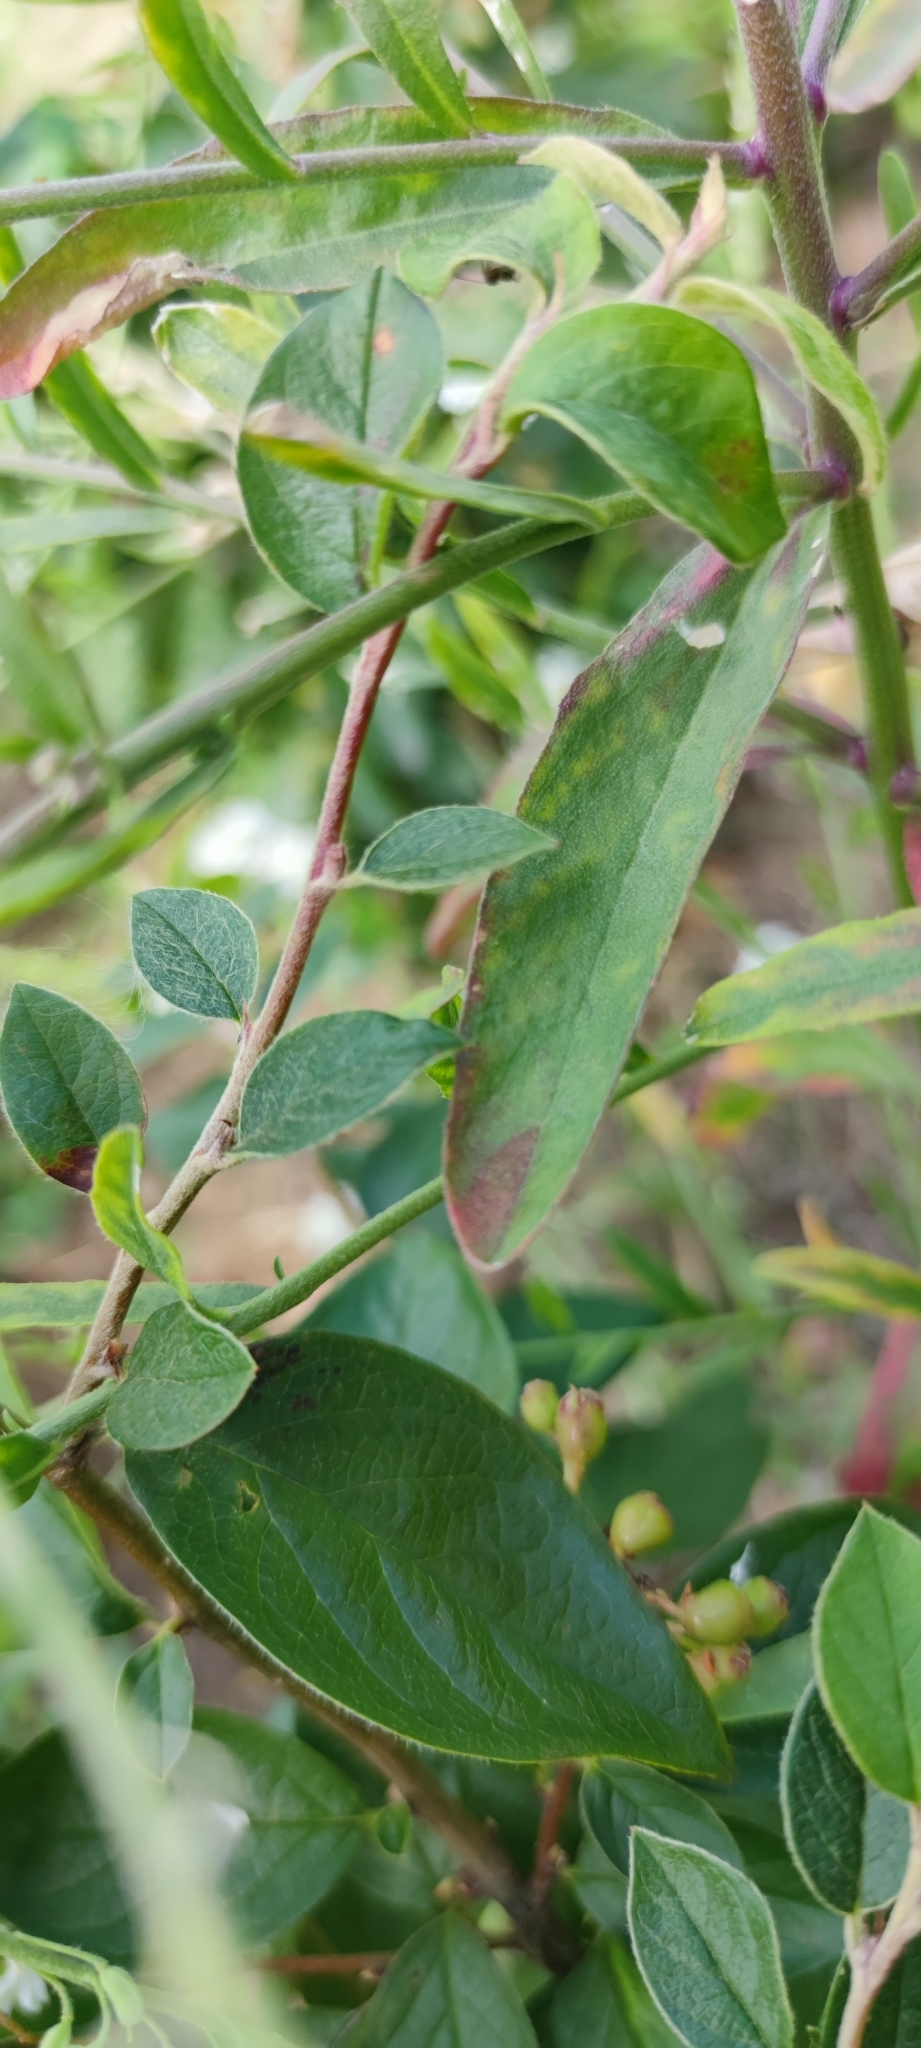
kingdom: Plantae
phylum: Tracheophyta
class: Magnoliopsida
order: Brassicales
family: Brassicaceae
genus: Berteroa
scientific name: Berteroa incana
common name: Hoary alison
